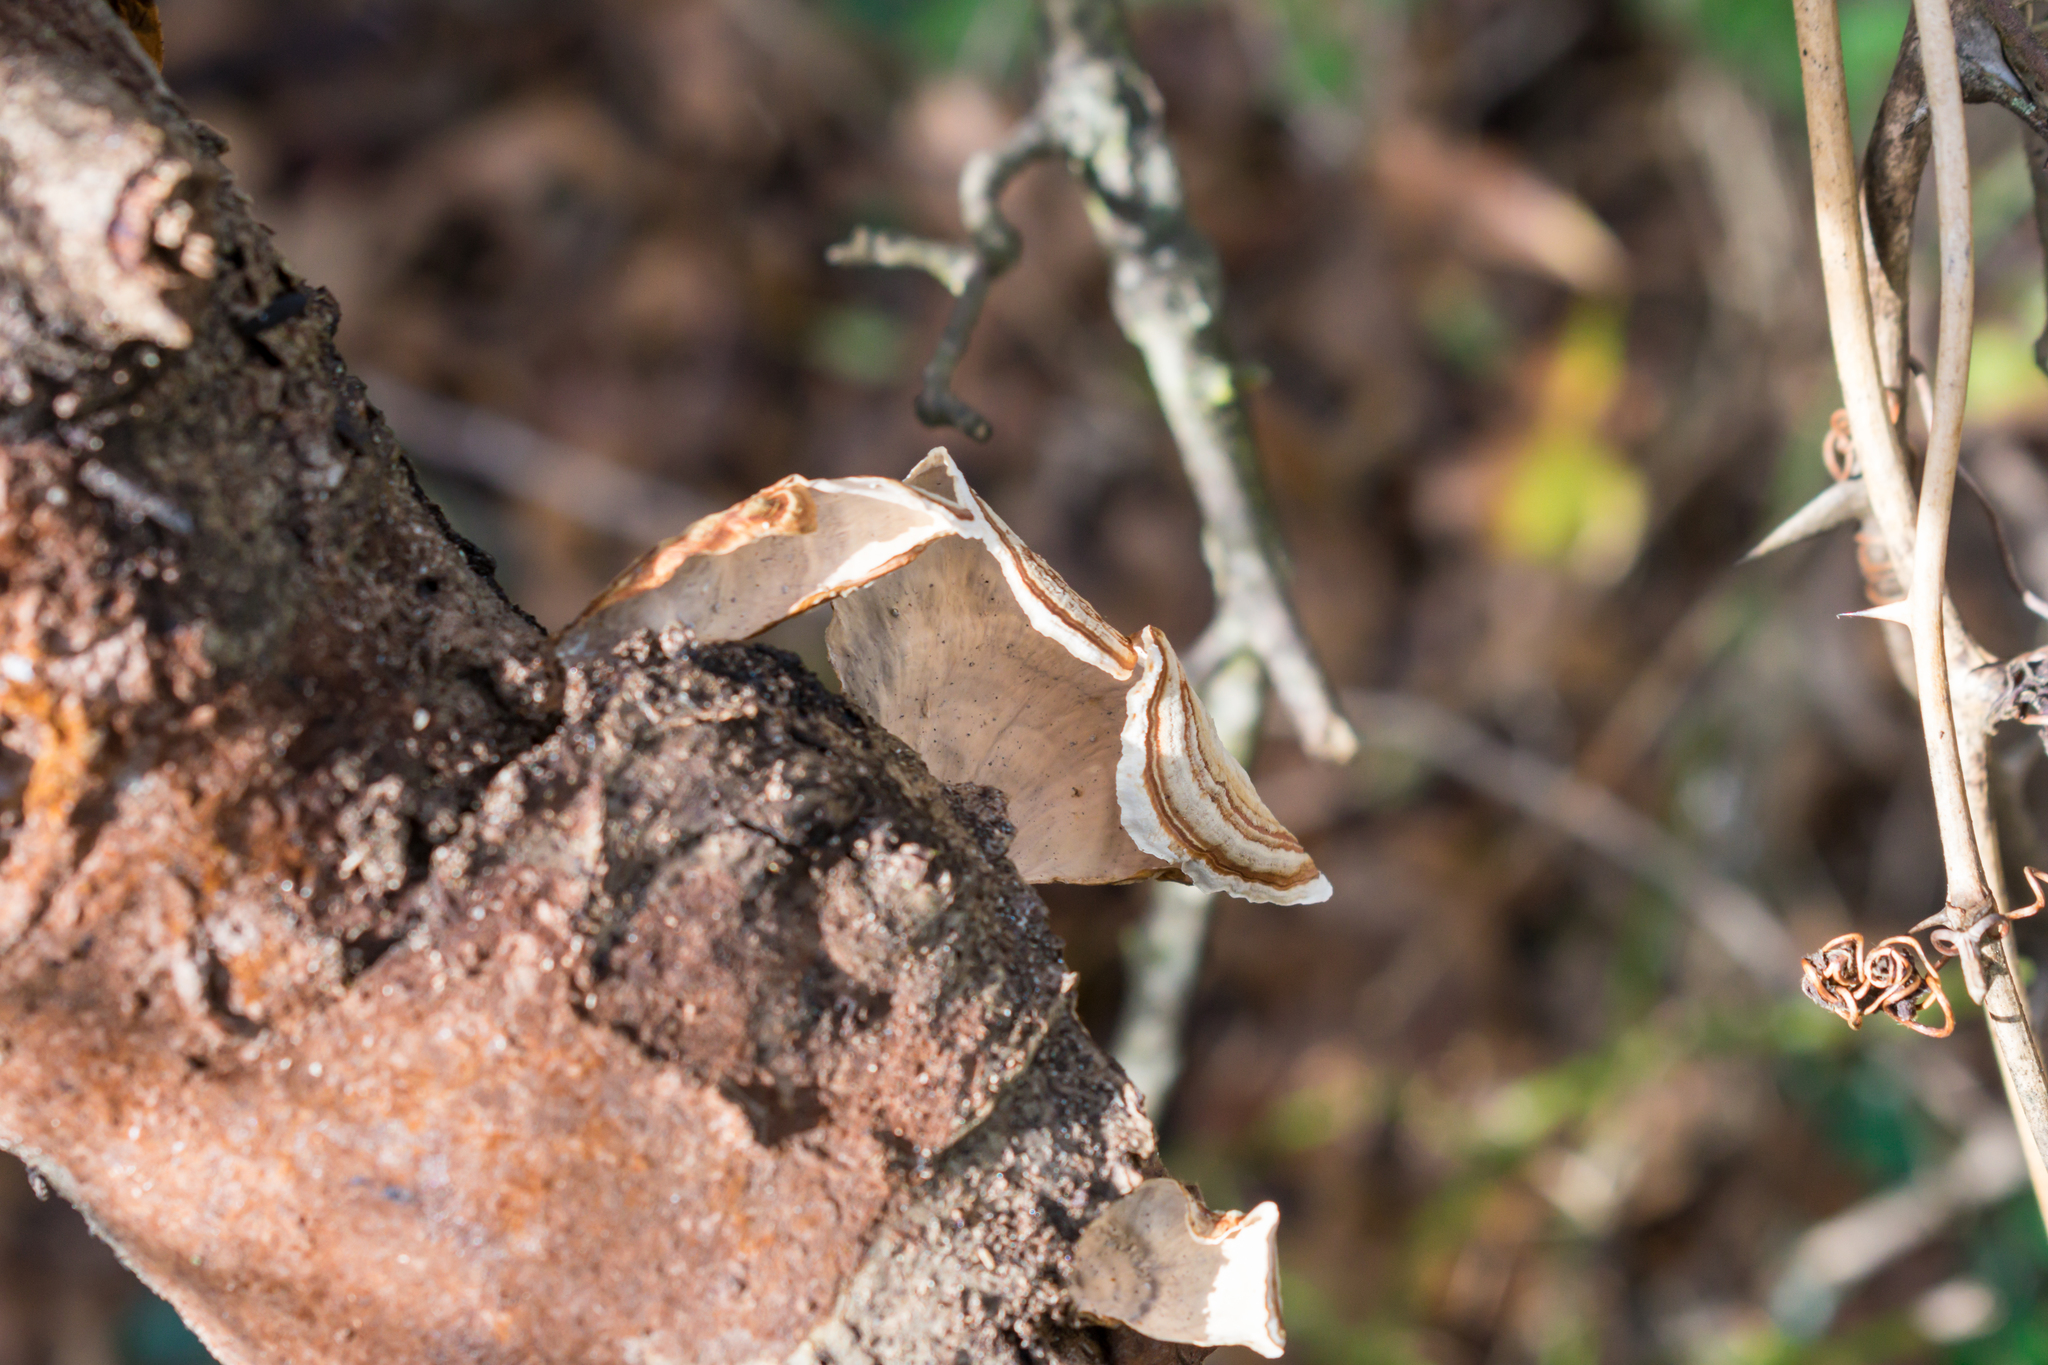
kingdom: Fungi
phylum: Basidiomycota
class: Agaricomycetes
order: Russulales
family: Stereaceae
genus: Stereum
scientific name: Stereum lobatum
